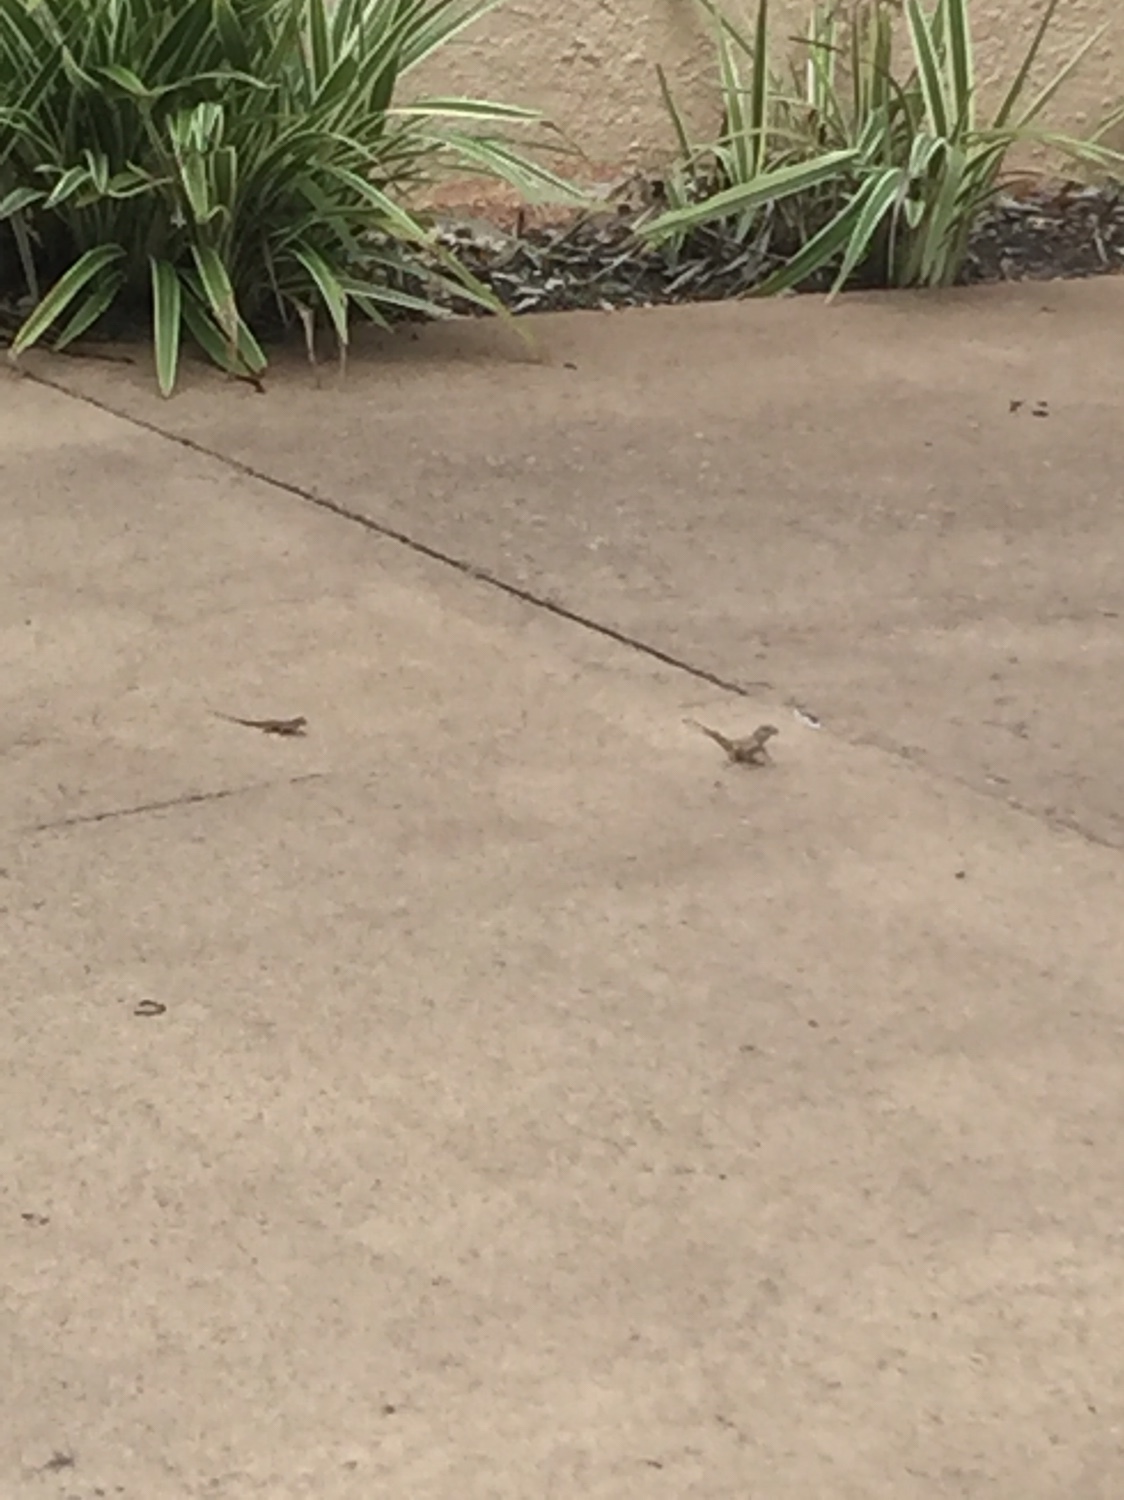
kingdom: Animalia
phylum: Chordata
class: Squamata
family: Dactyloidae
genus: Anolis
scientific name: Anolis sagrei
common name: Brown anole
